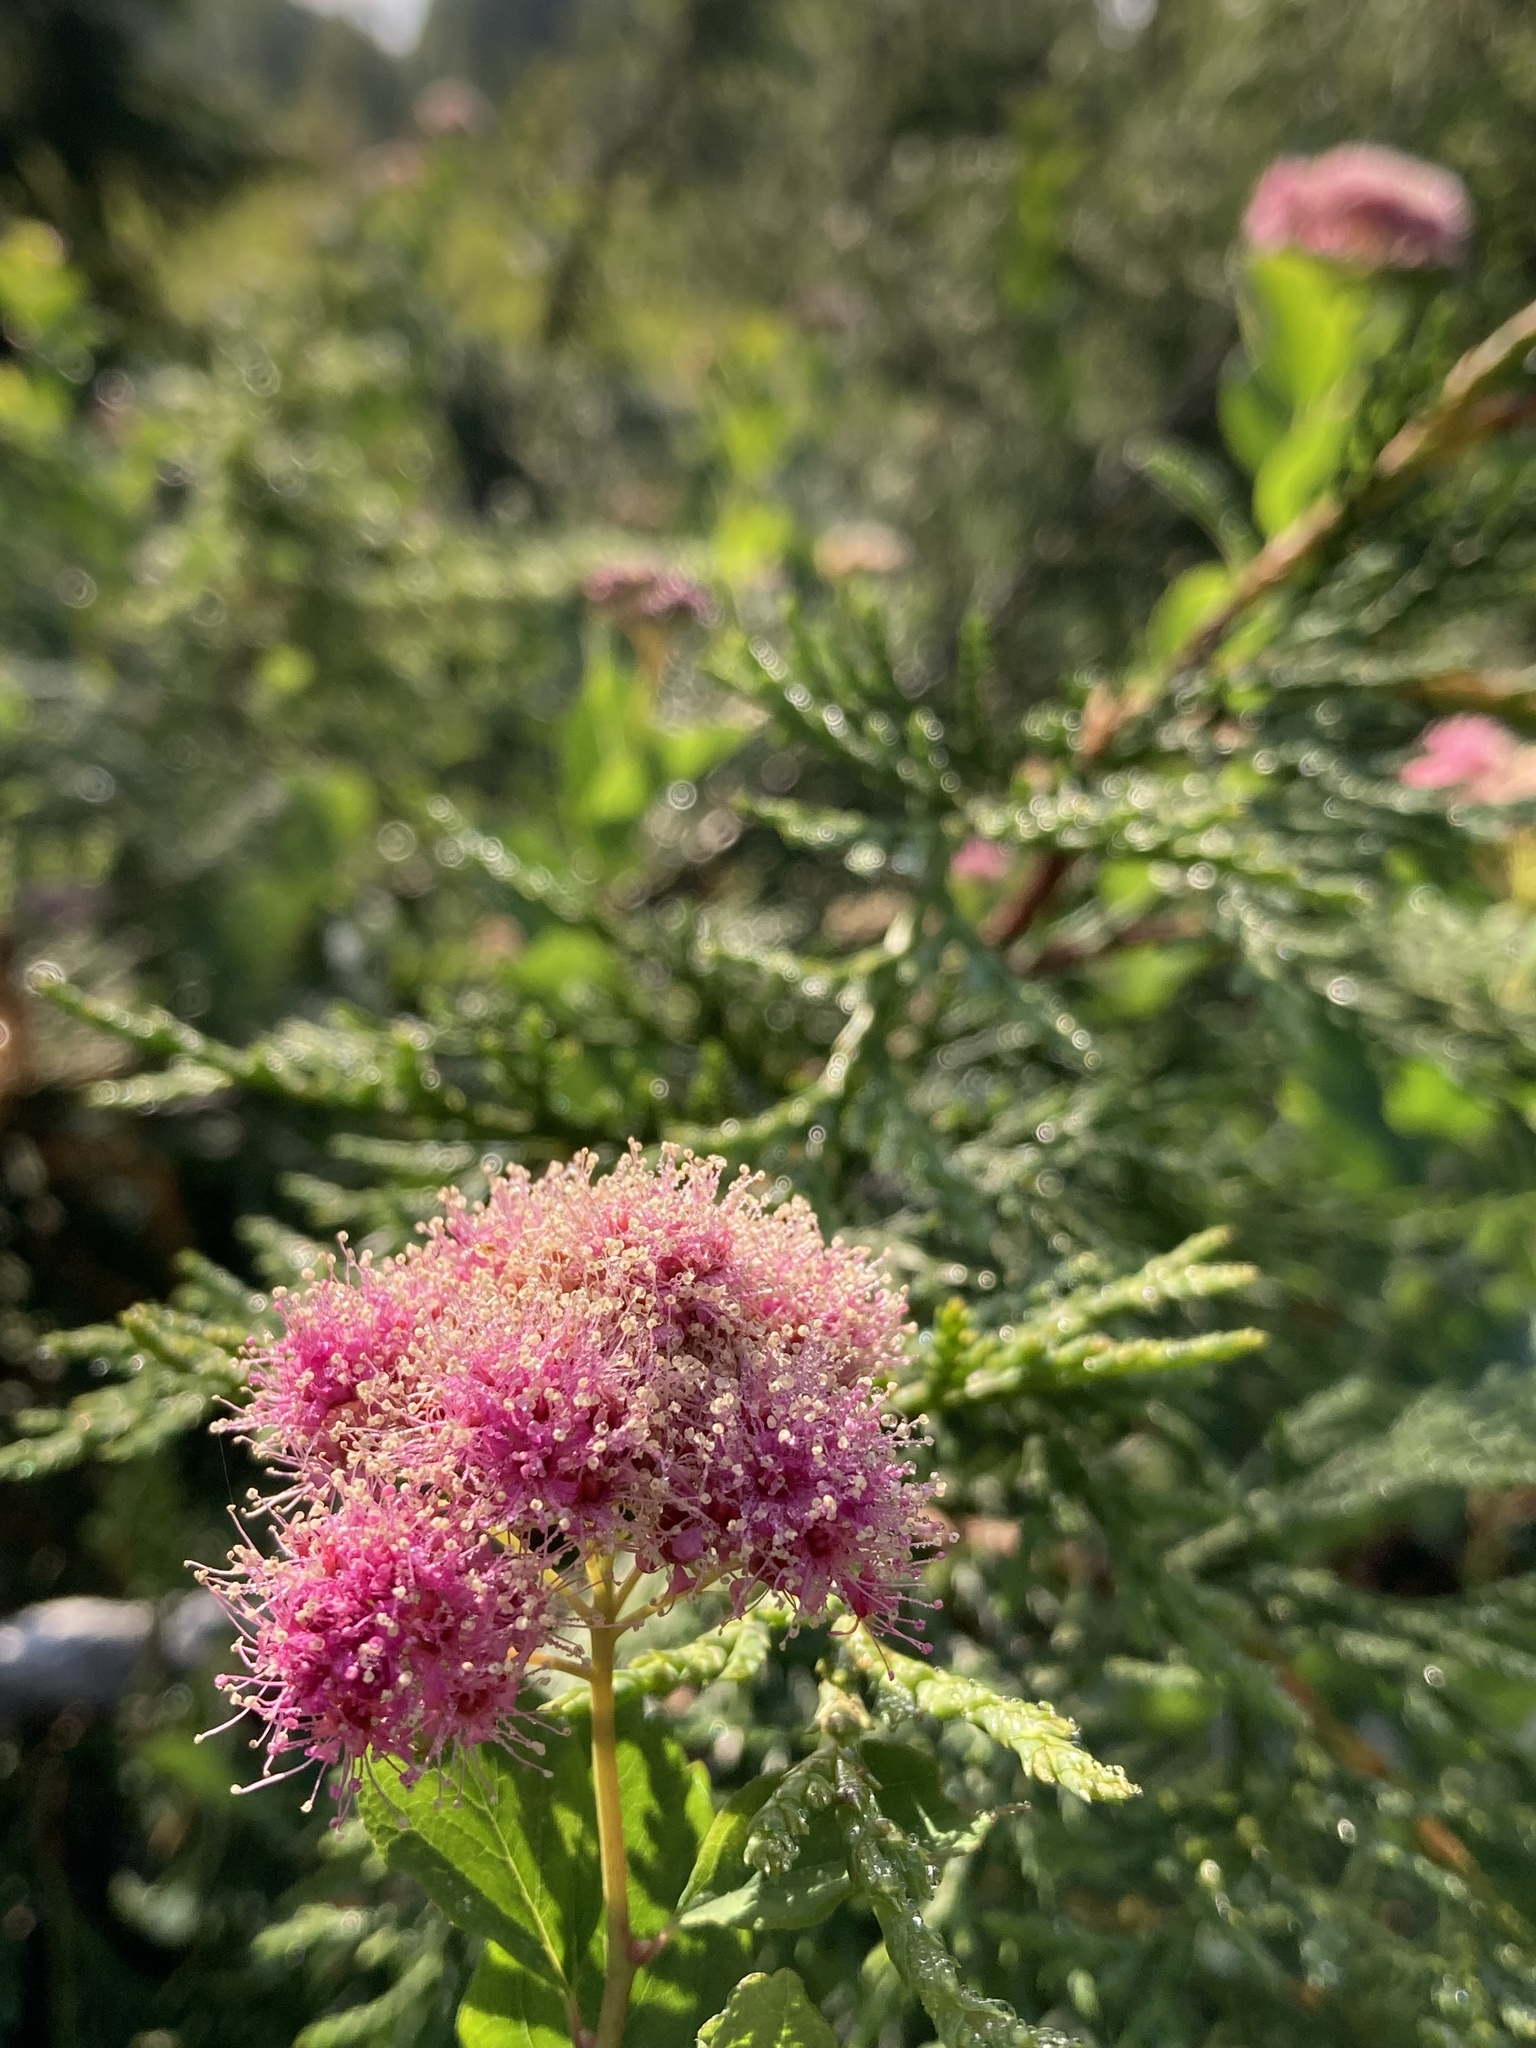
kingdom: Plantae
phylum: Tracheophyta
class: Magnoliopsida
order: Rosales
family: Rosaceae
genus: Spiraea
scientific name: Spiraea splendens
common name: Subalpine meadowsweet
